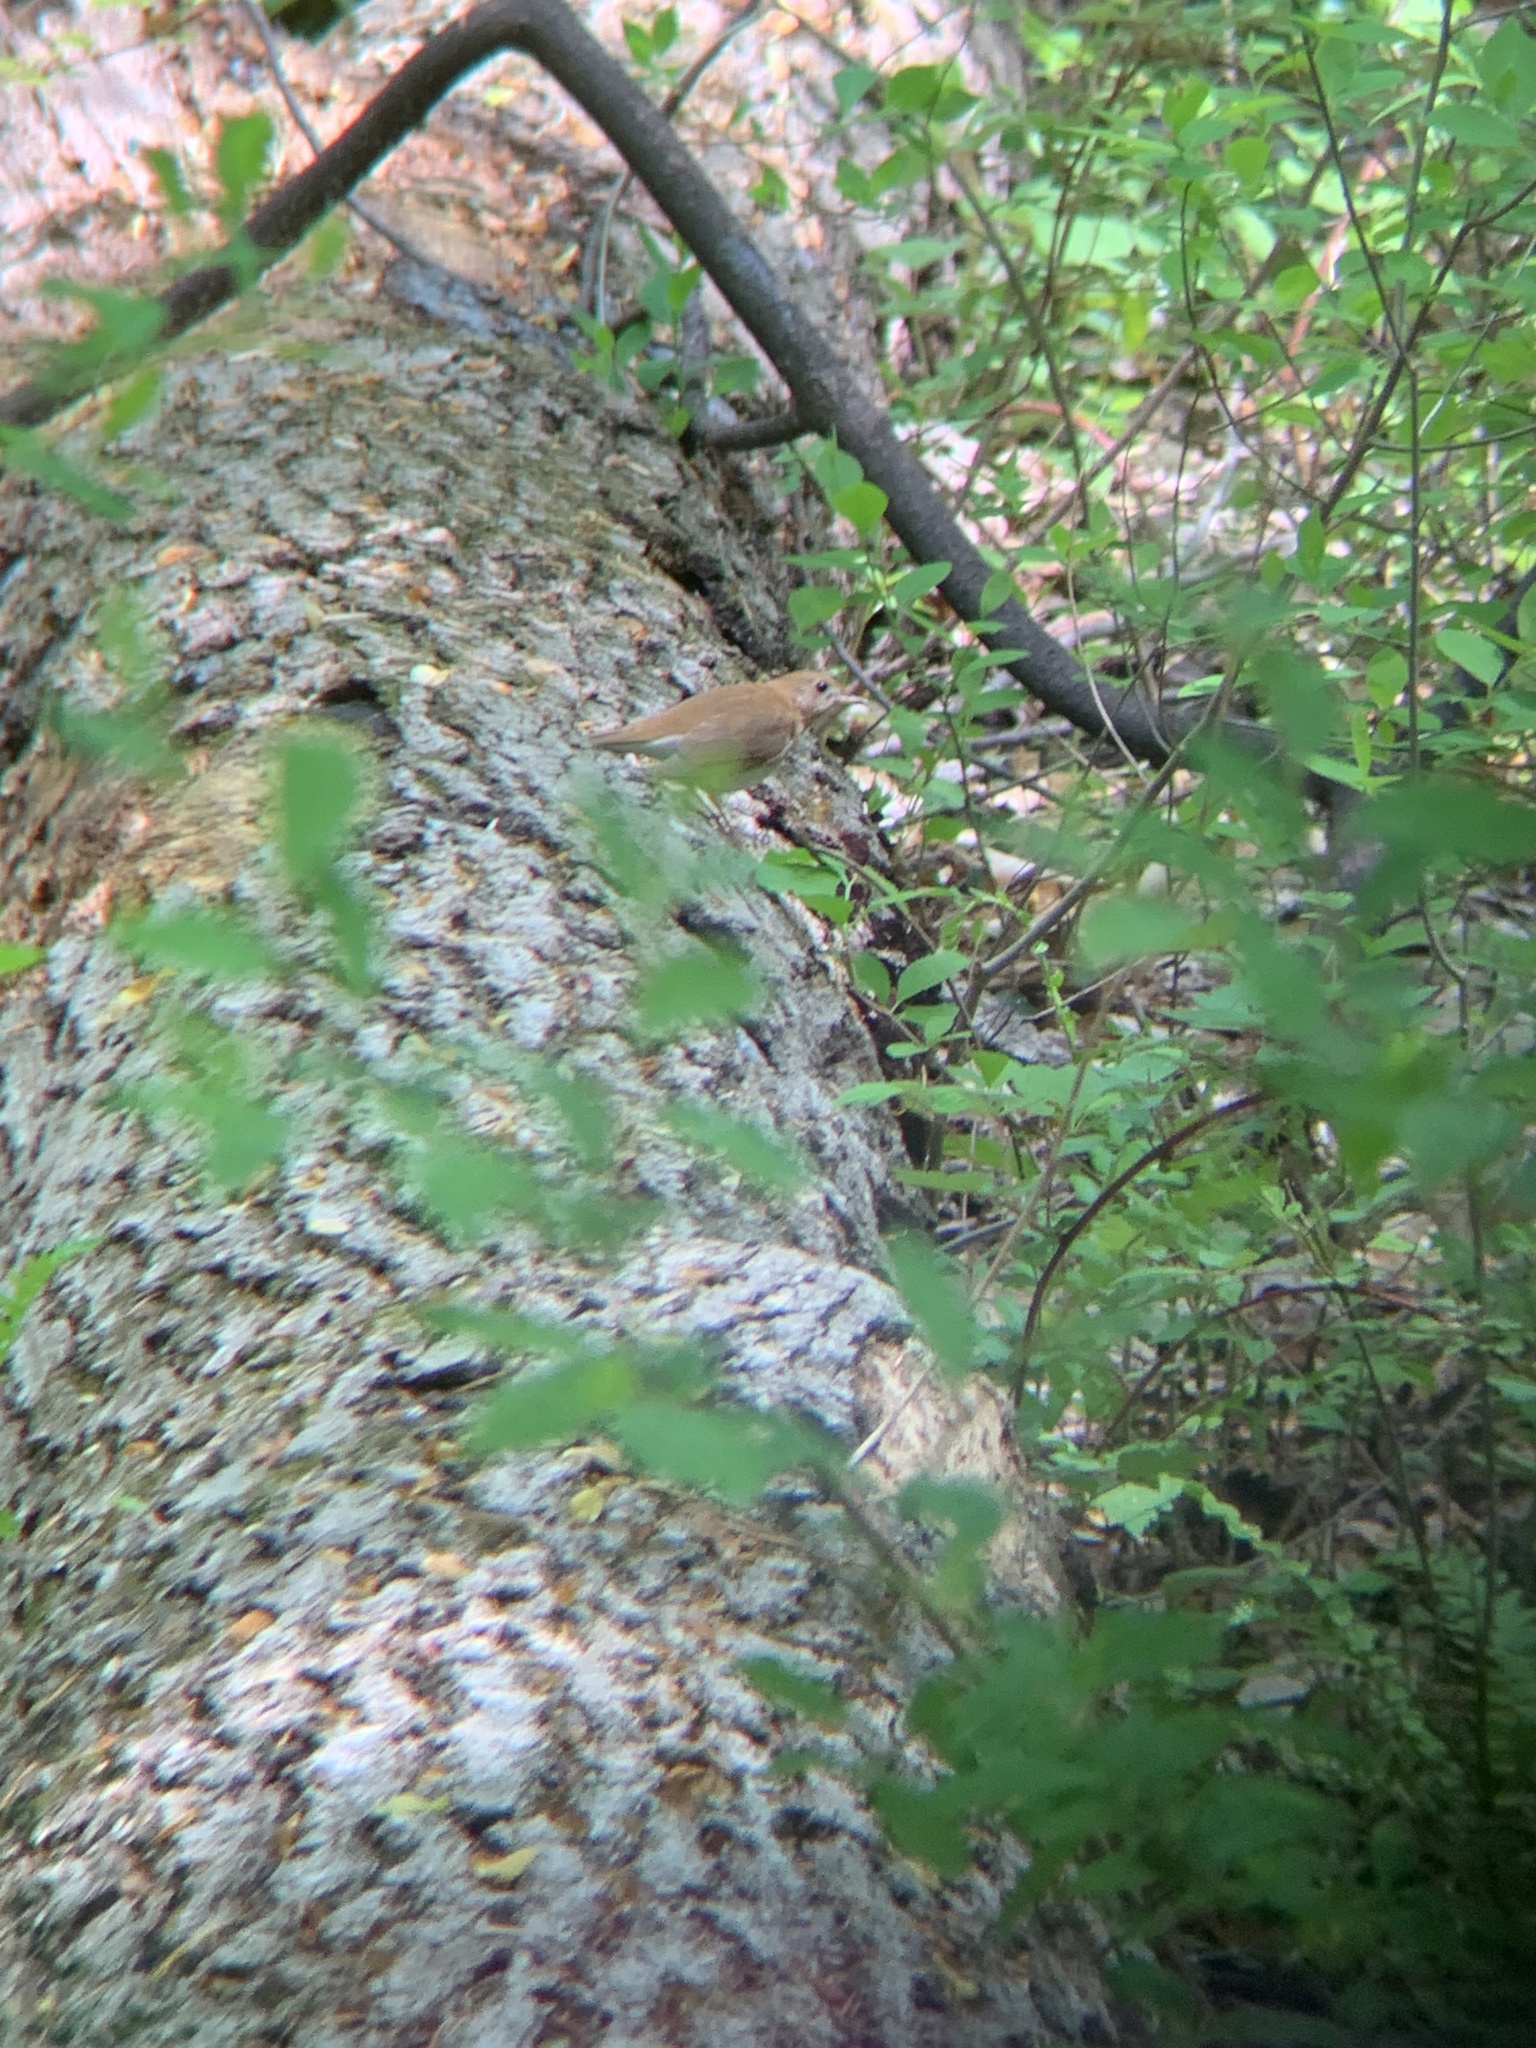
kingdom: Animalia
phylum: Chordata
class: Aves
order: Passeriformes
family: Turdidae
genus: Catharus
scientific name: Catharus fuscescens
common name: Veery
